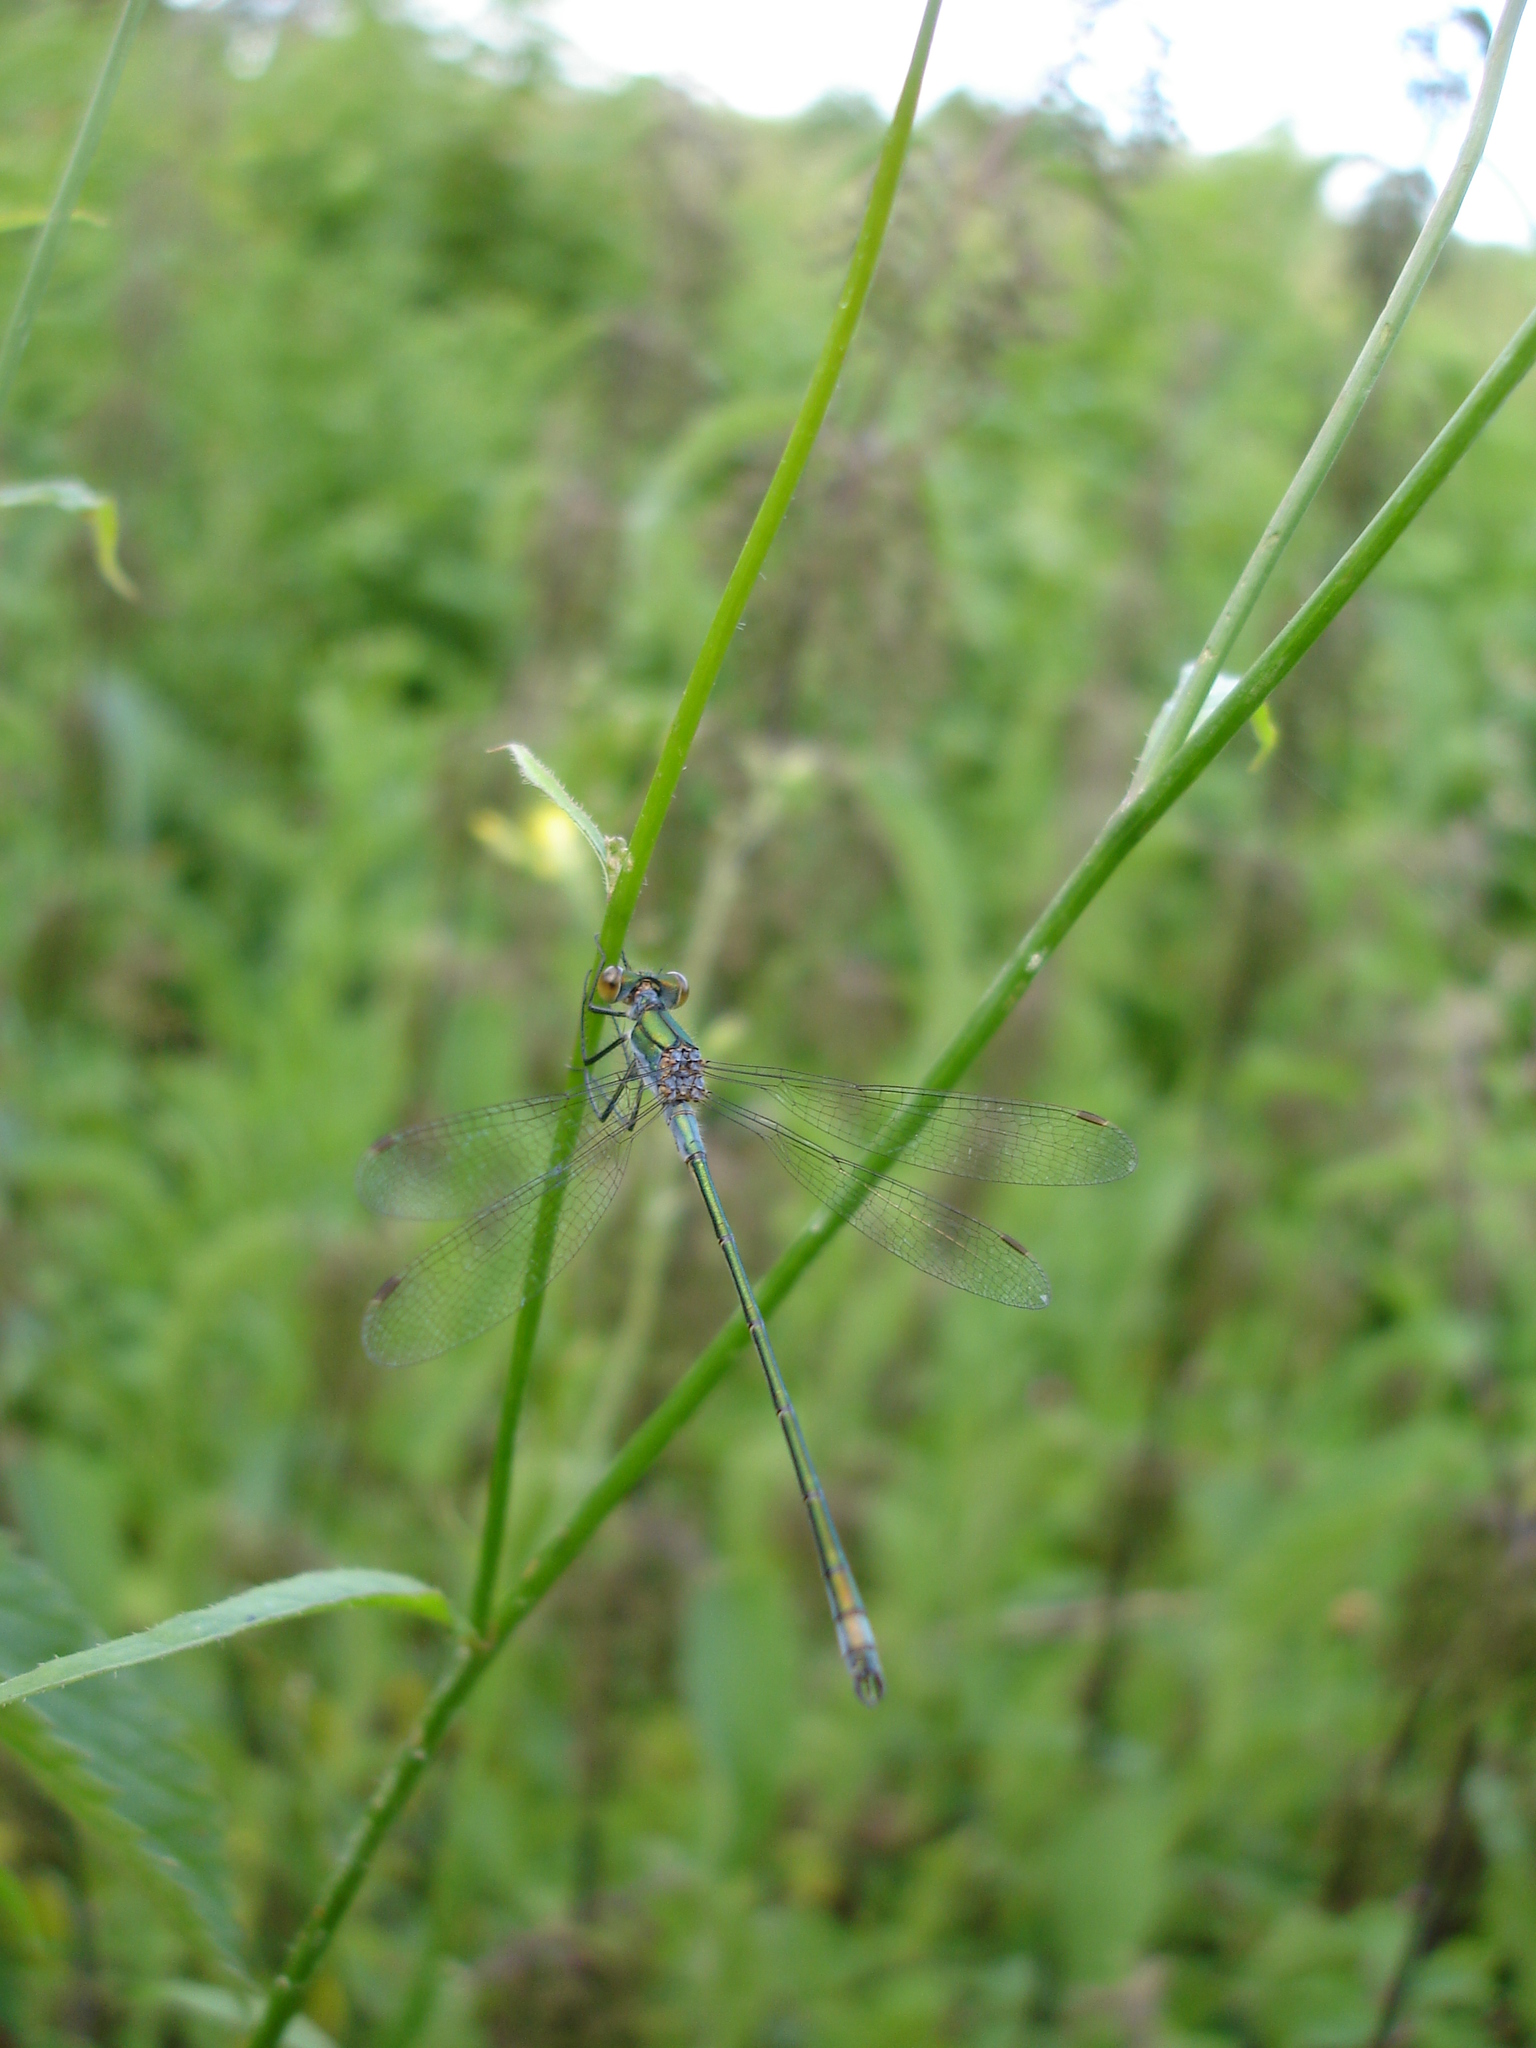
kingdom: Animalia
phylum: Arthropoda
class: Insecta
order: Odonata
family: Lestidae
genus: Lestes
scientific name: Lestes sponsa
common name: Common spreadwing
